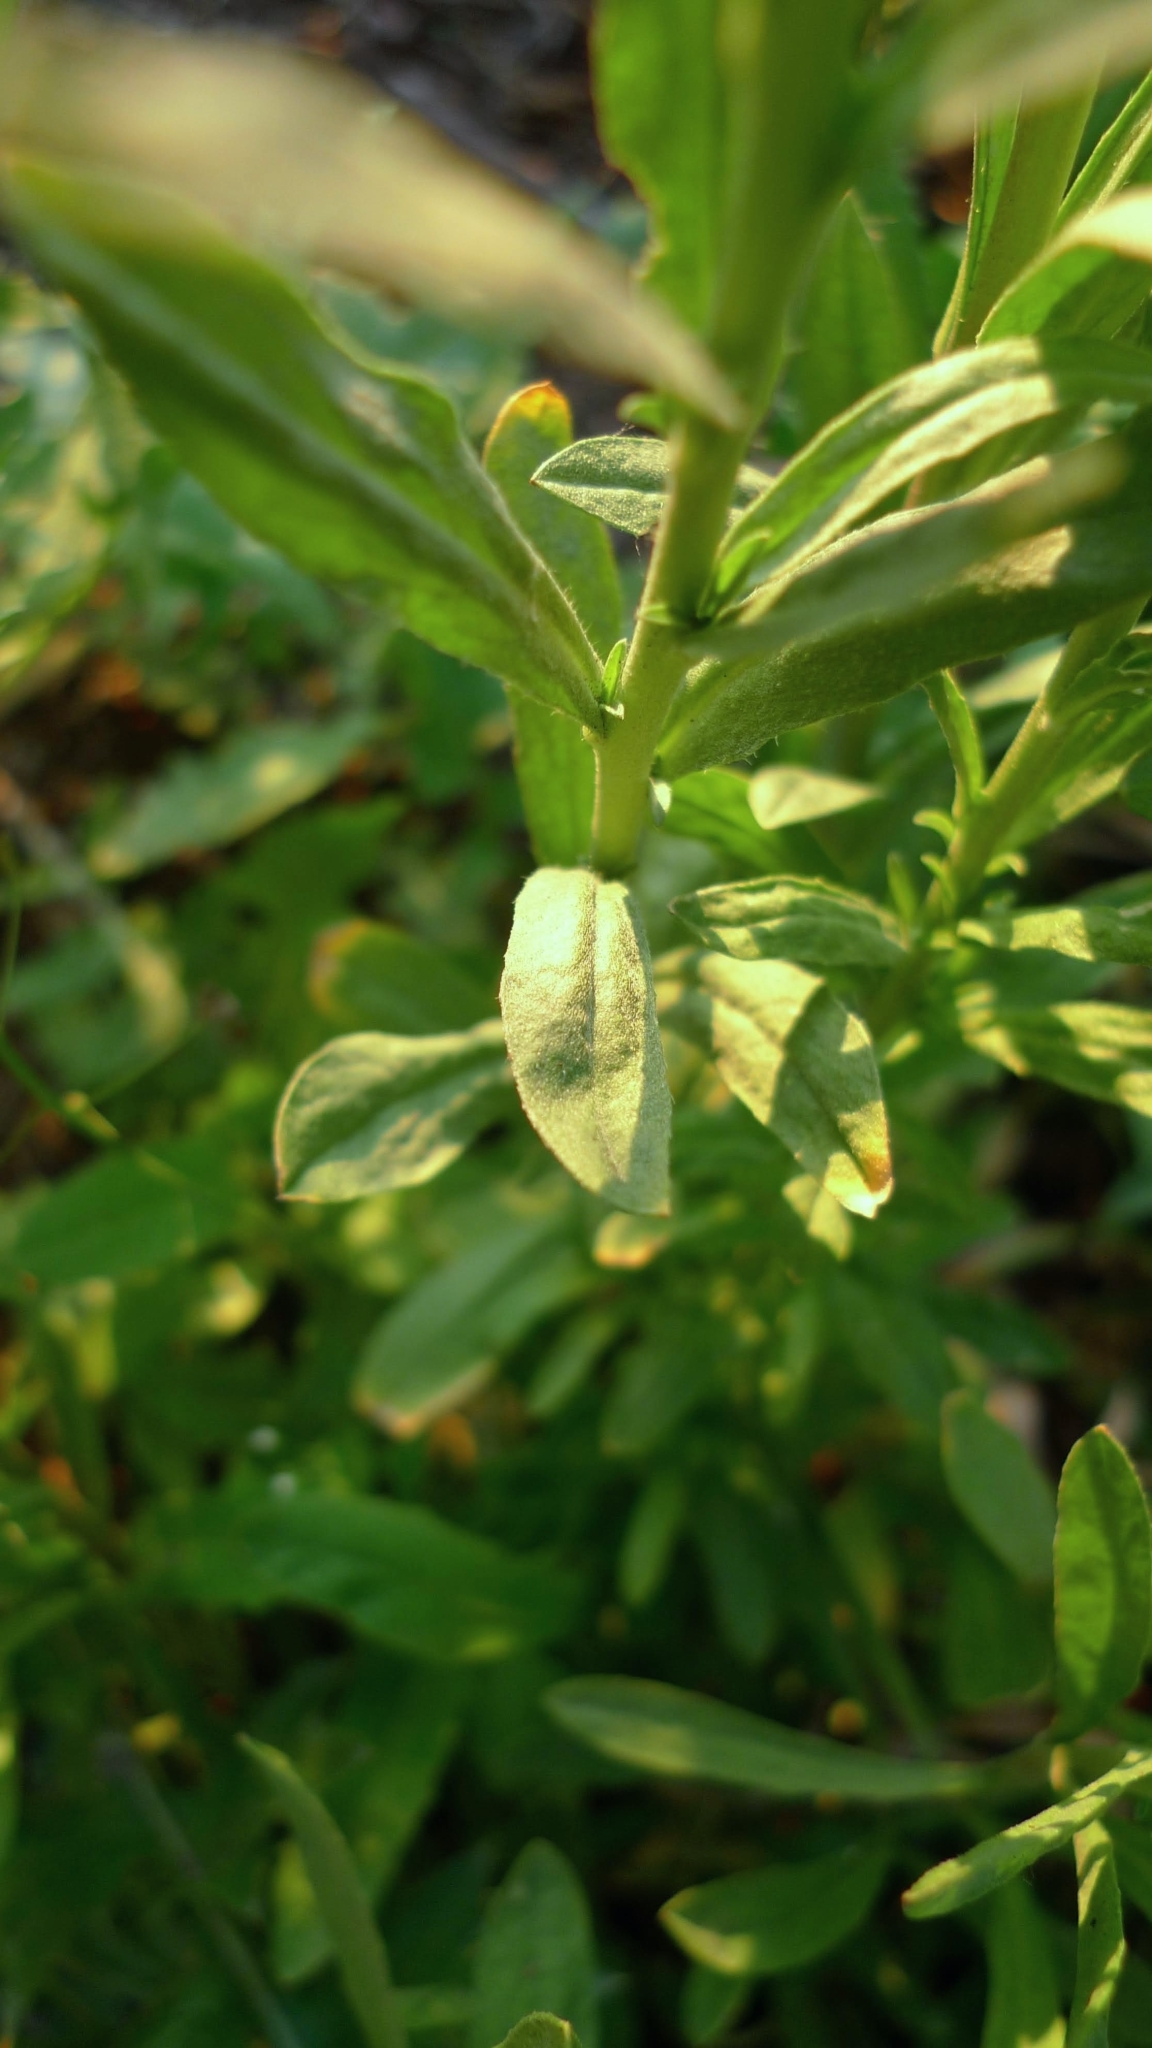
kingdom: Plantae
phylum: Tracheophyta
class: Magnoliopsida
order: Brassicales
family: Brassicaceae
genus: Berteroa
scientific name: Berteroa incana
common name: Hoary alison
